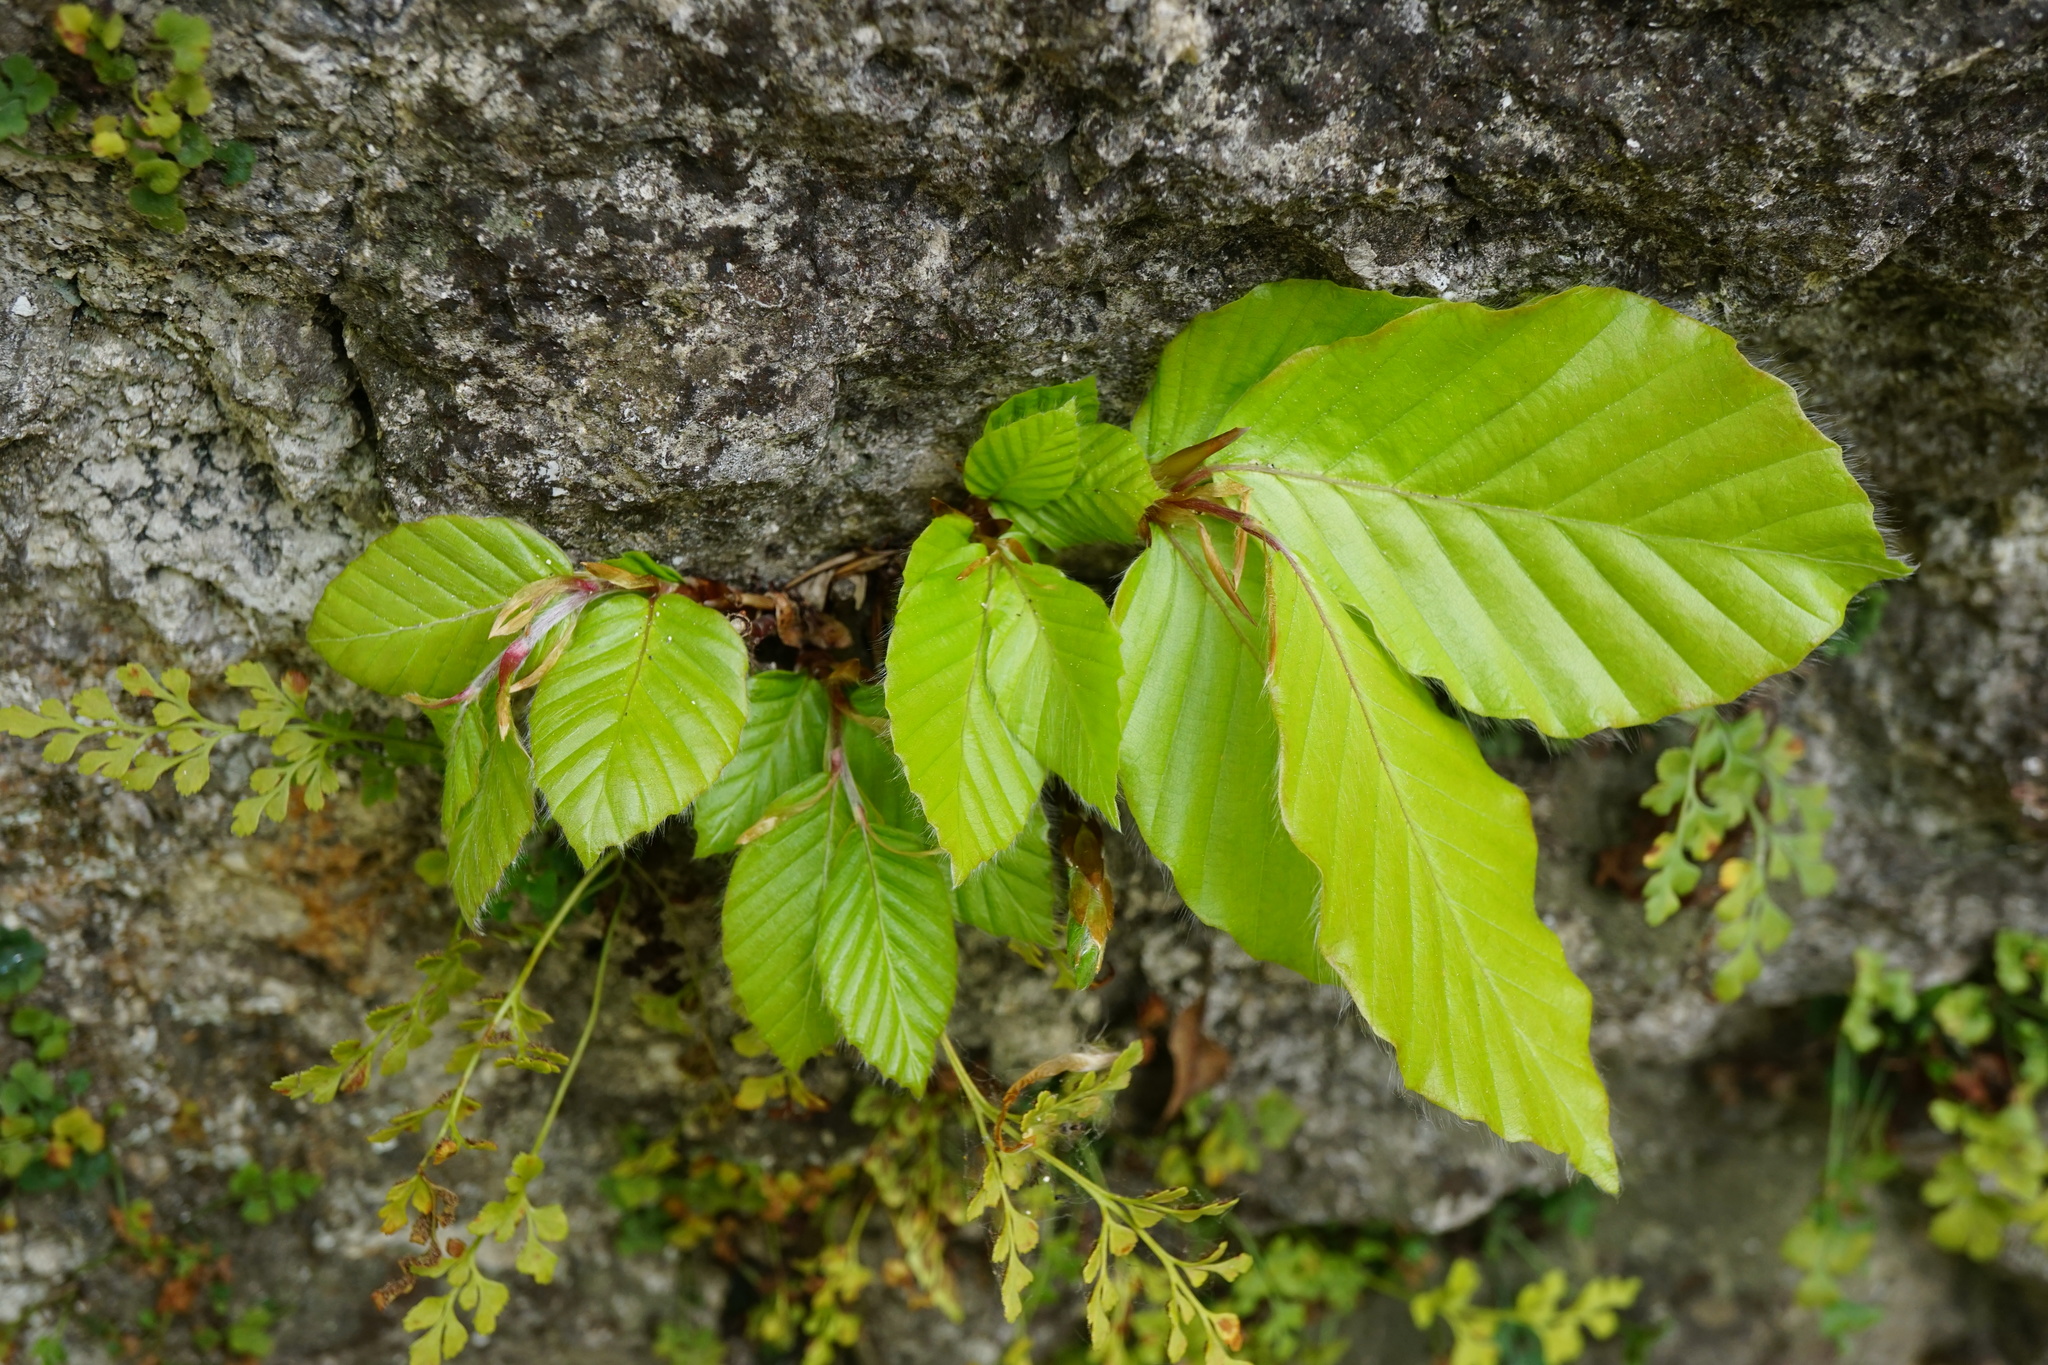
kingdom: Plantae
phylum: Tracheophyta
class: Magnoliopsida
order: Fagales
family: Fagaceae
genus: Fagus
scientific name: Fagus sylvatica
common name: Beech
